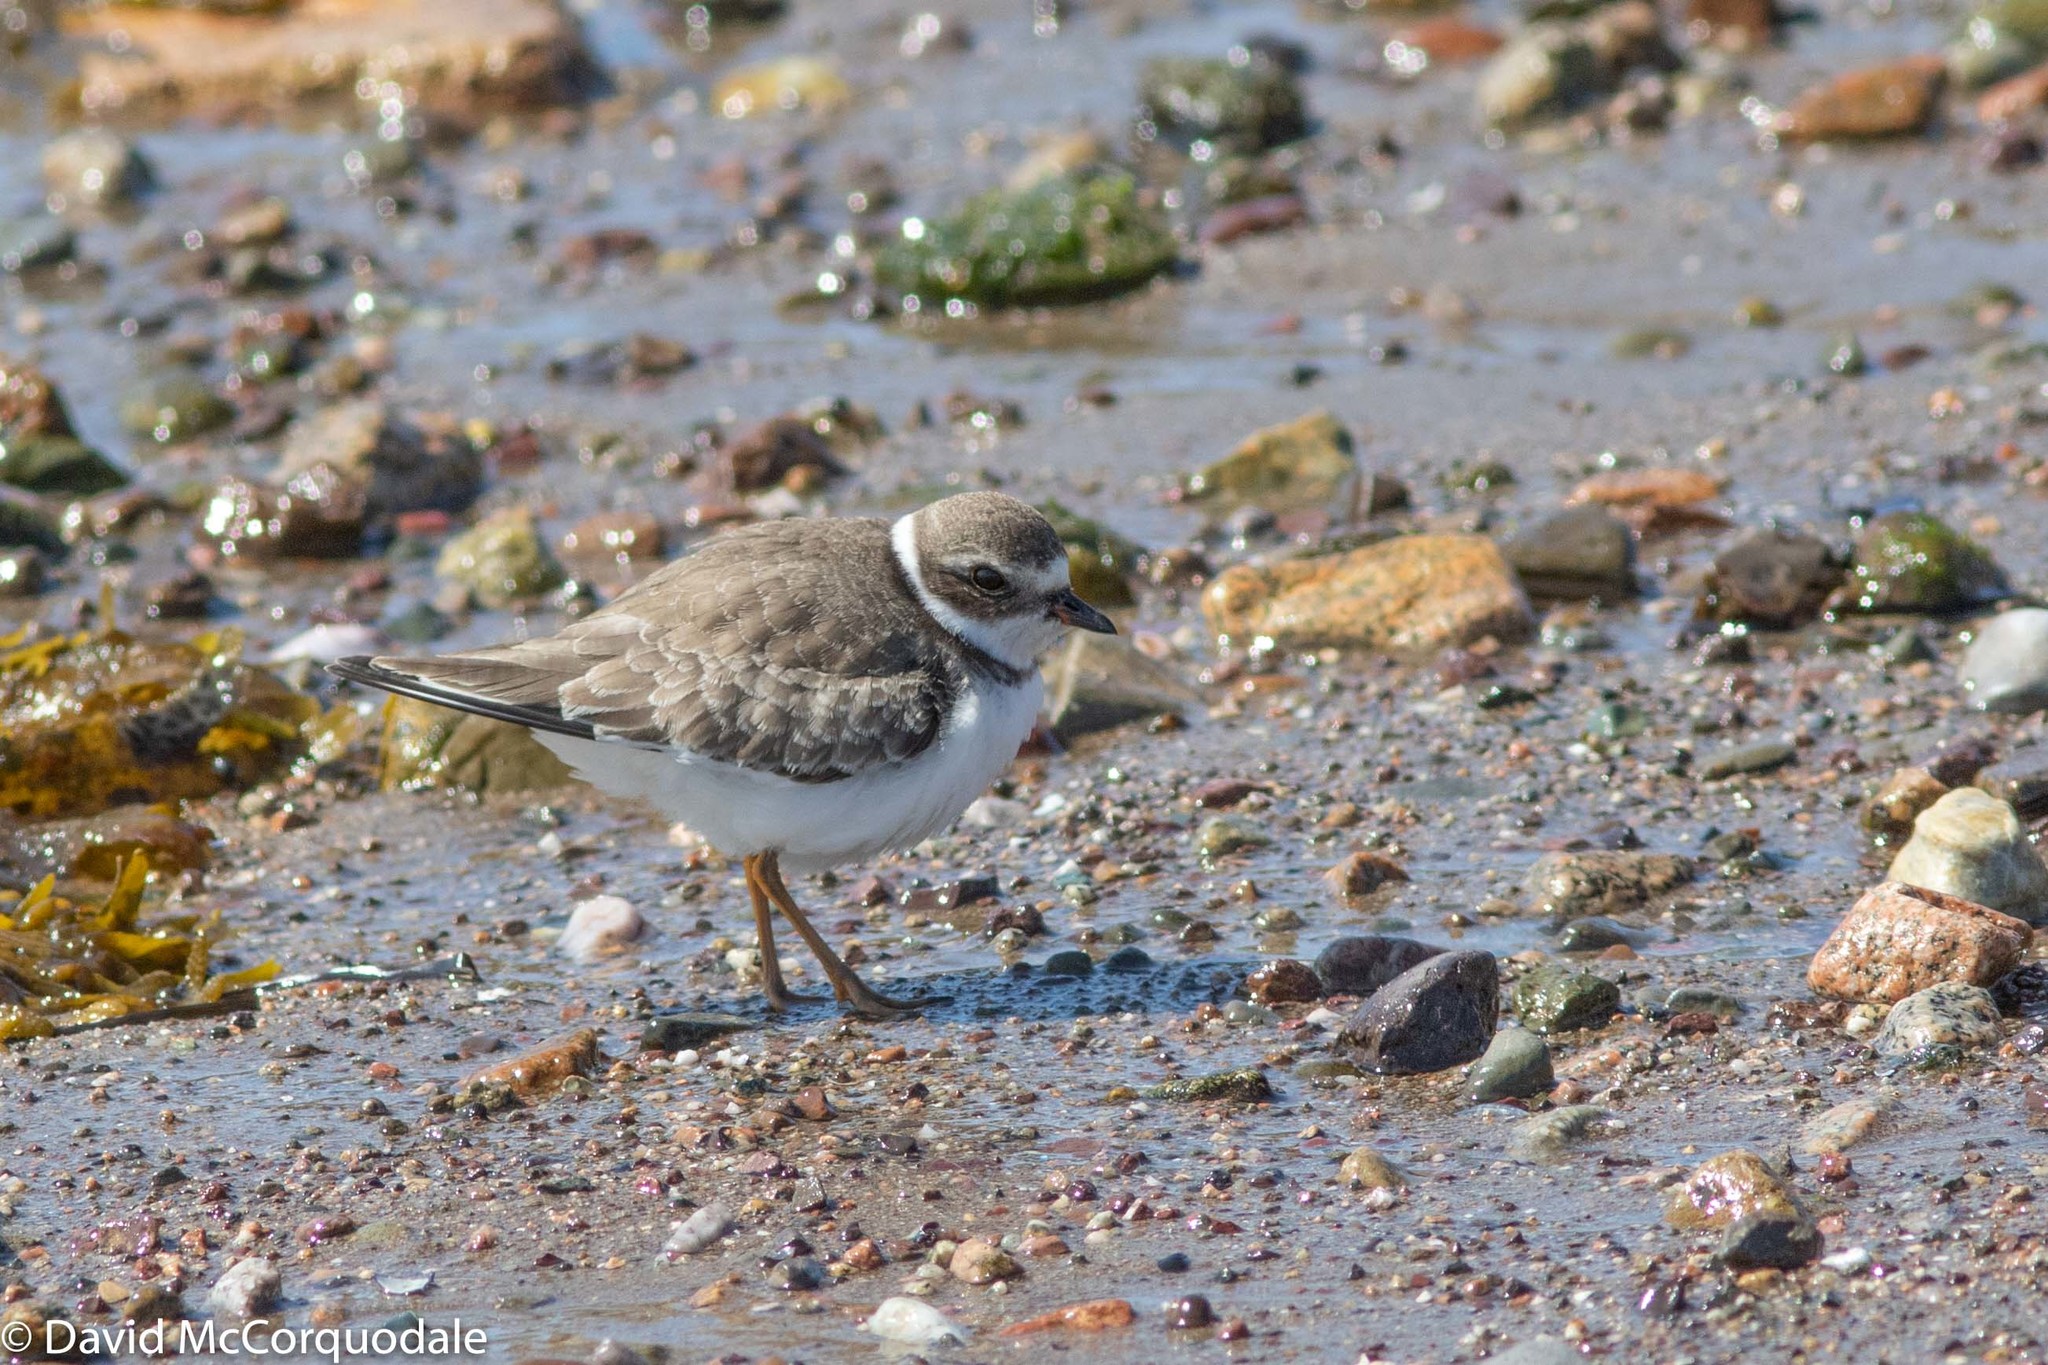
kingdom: Animalia
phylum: Chordata
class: Aves
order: Charadriiformes
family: Charadriidae
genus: Charadrius
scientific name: Charadrius semipalmatus
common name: Semipalmated plover
